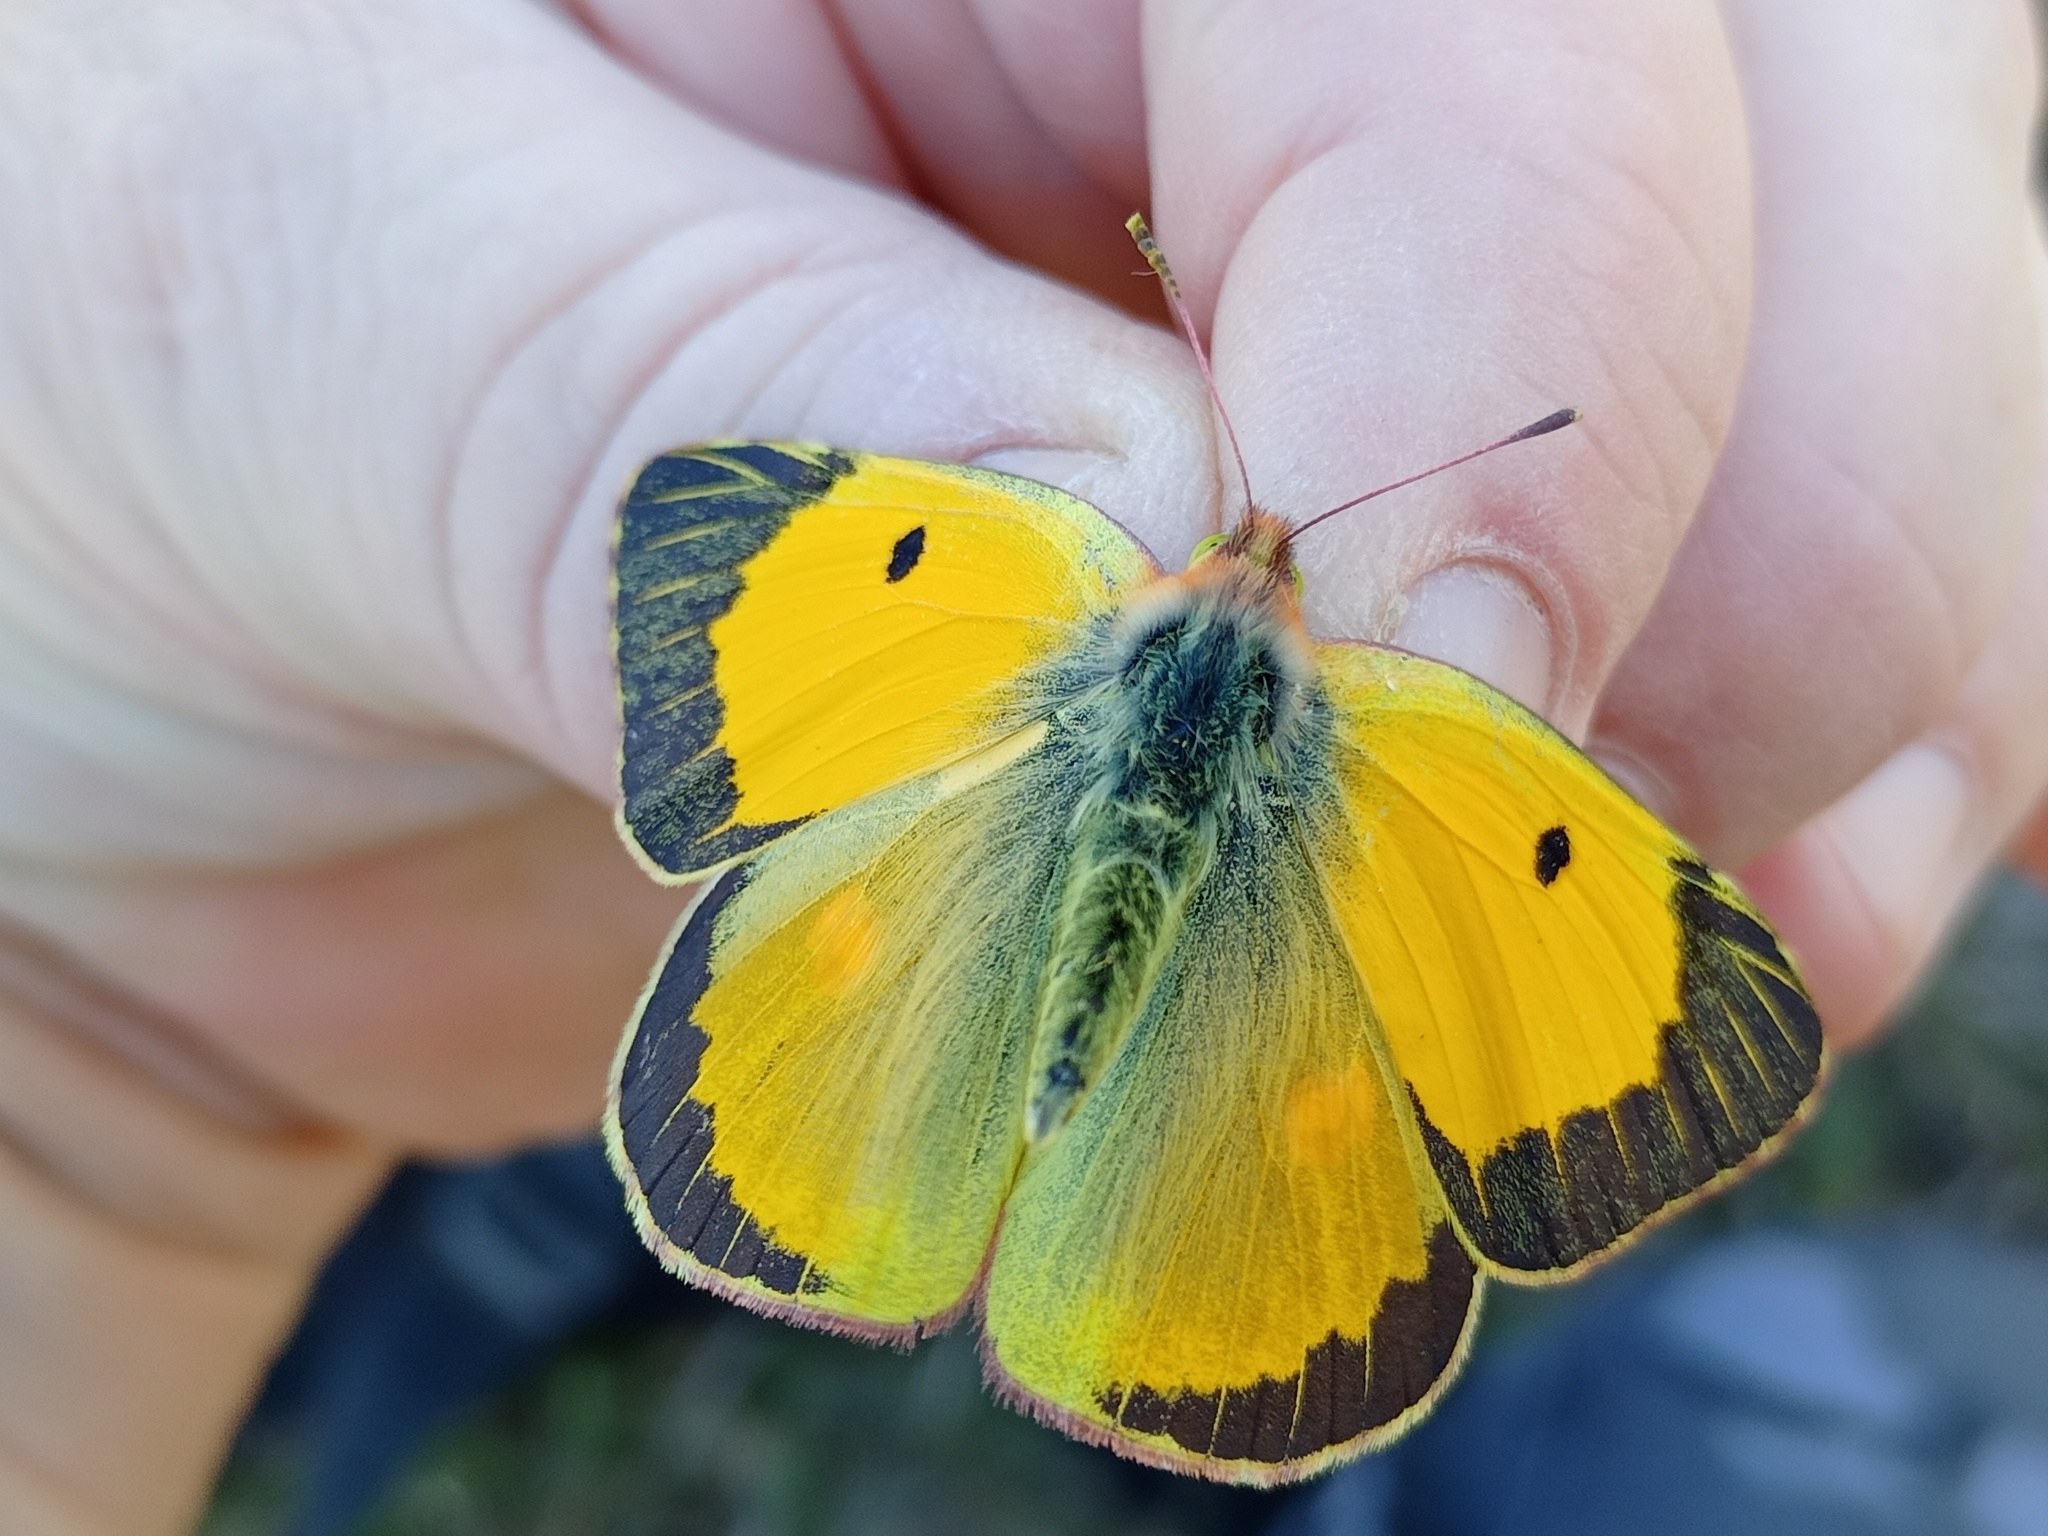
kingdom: Animalia
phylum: Arthropoda
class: Insecta
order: Lepidoptera
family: Pieridae
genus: Colias
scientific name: Colias croceus
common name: Clouded yellow
